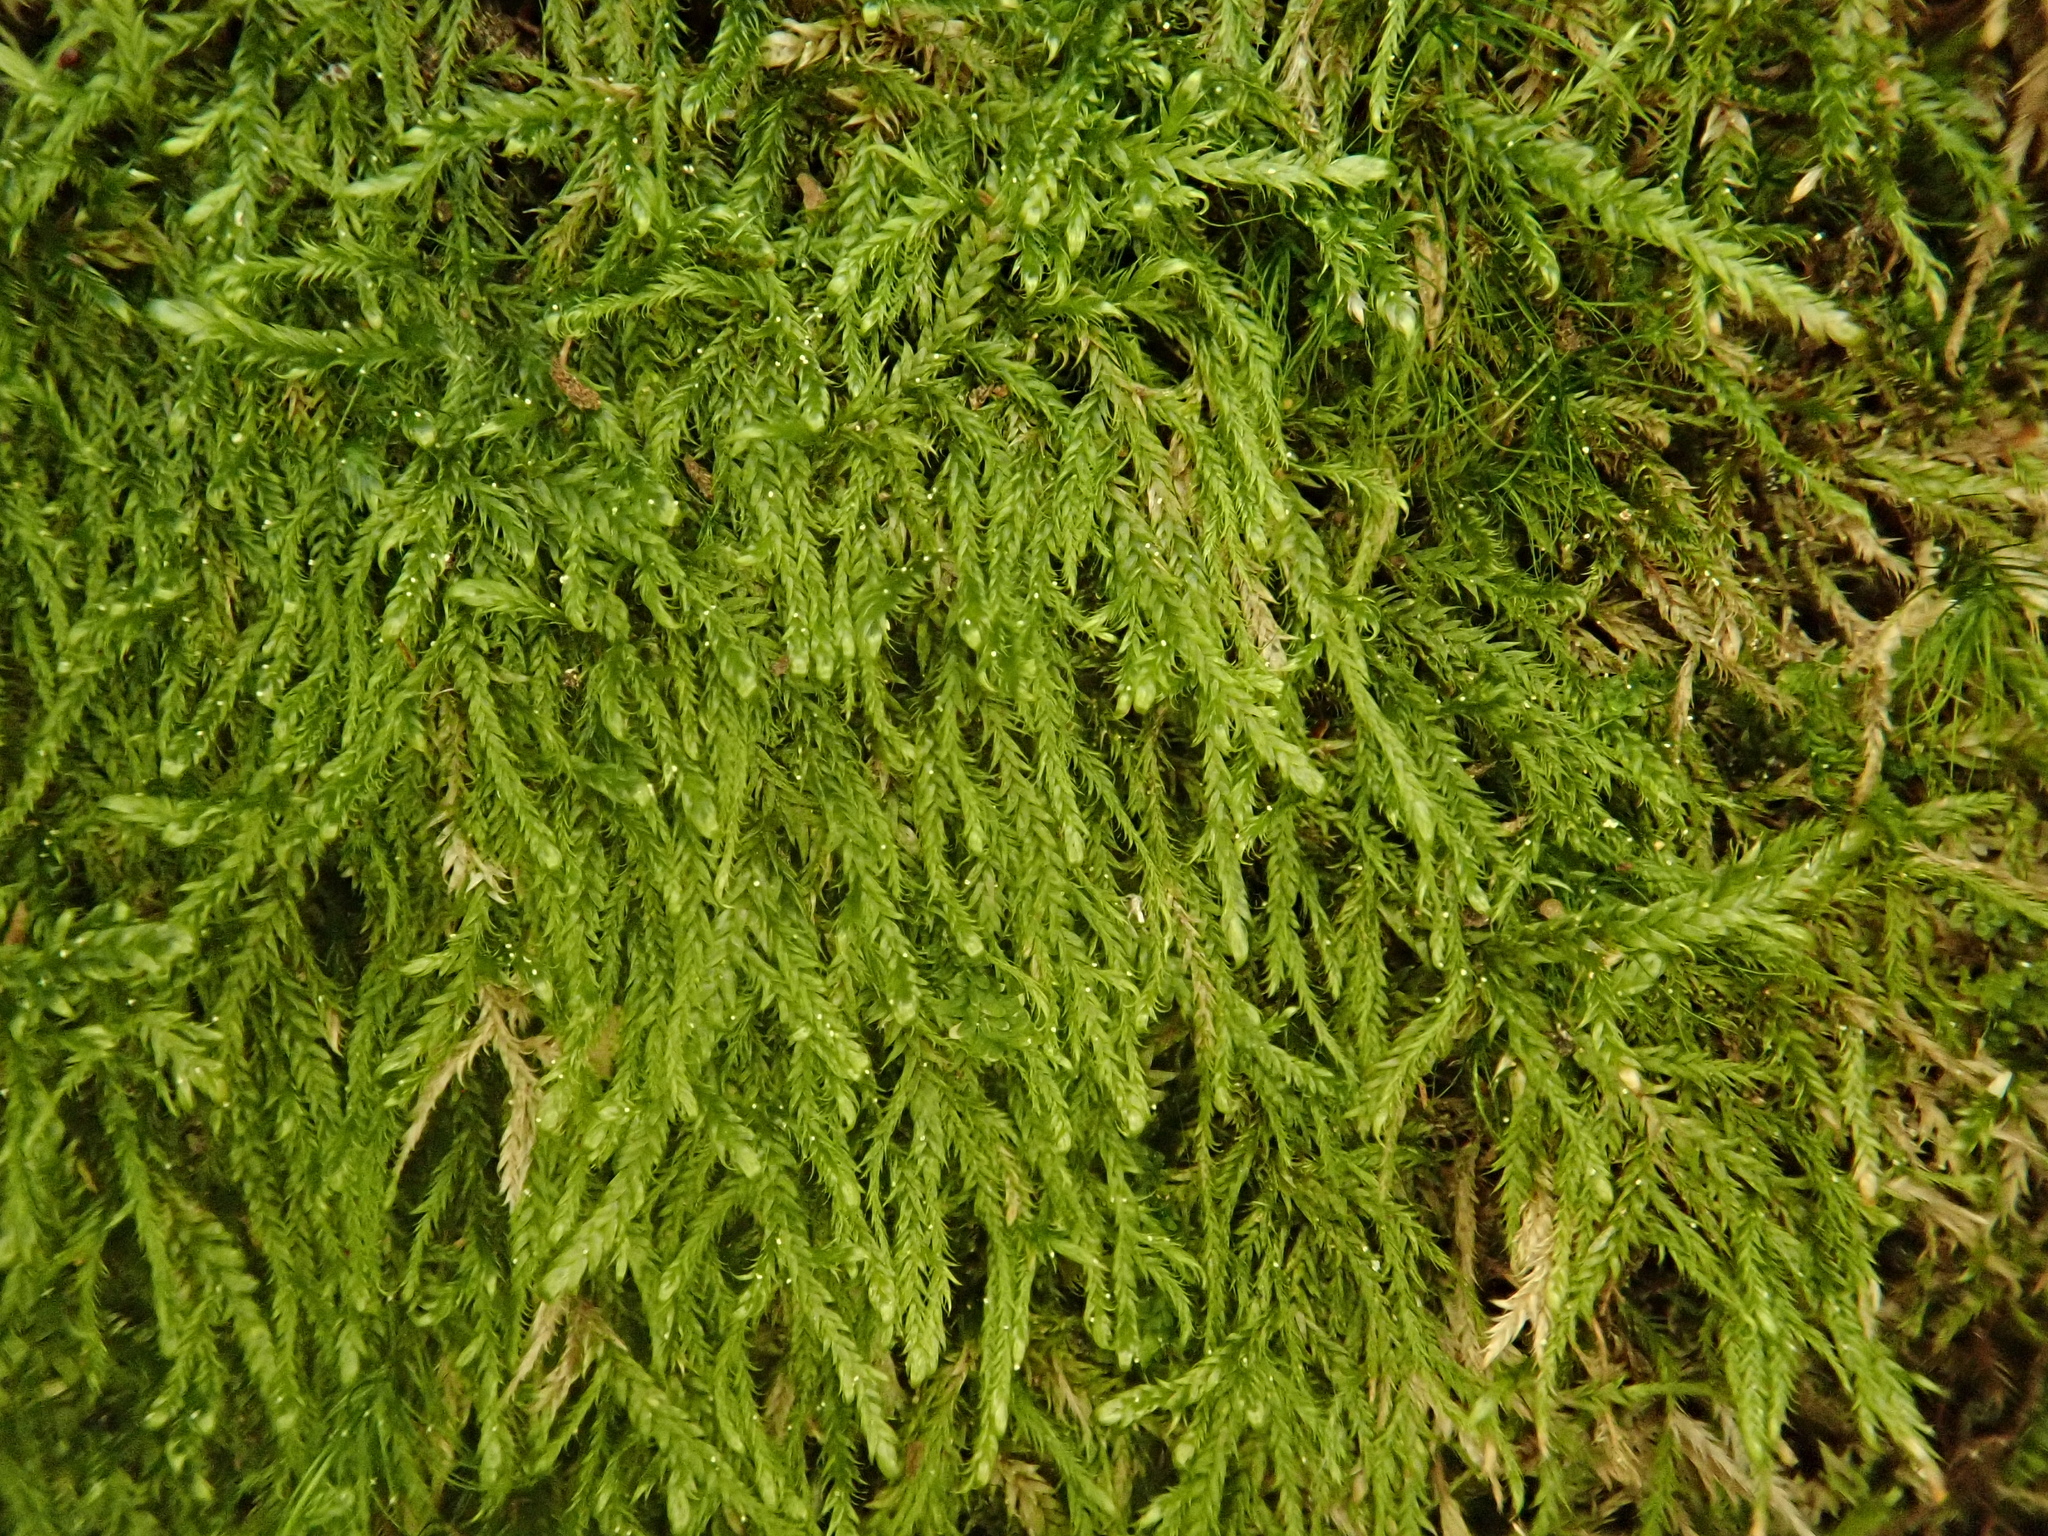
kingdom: Plantae
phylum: Bryophyta
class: Bryopsida
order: Hypnales
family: Hypnaceae
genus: Hypnum
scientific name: Hypnum andoi
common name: Ando's plait moss
